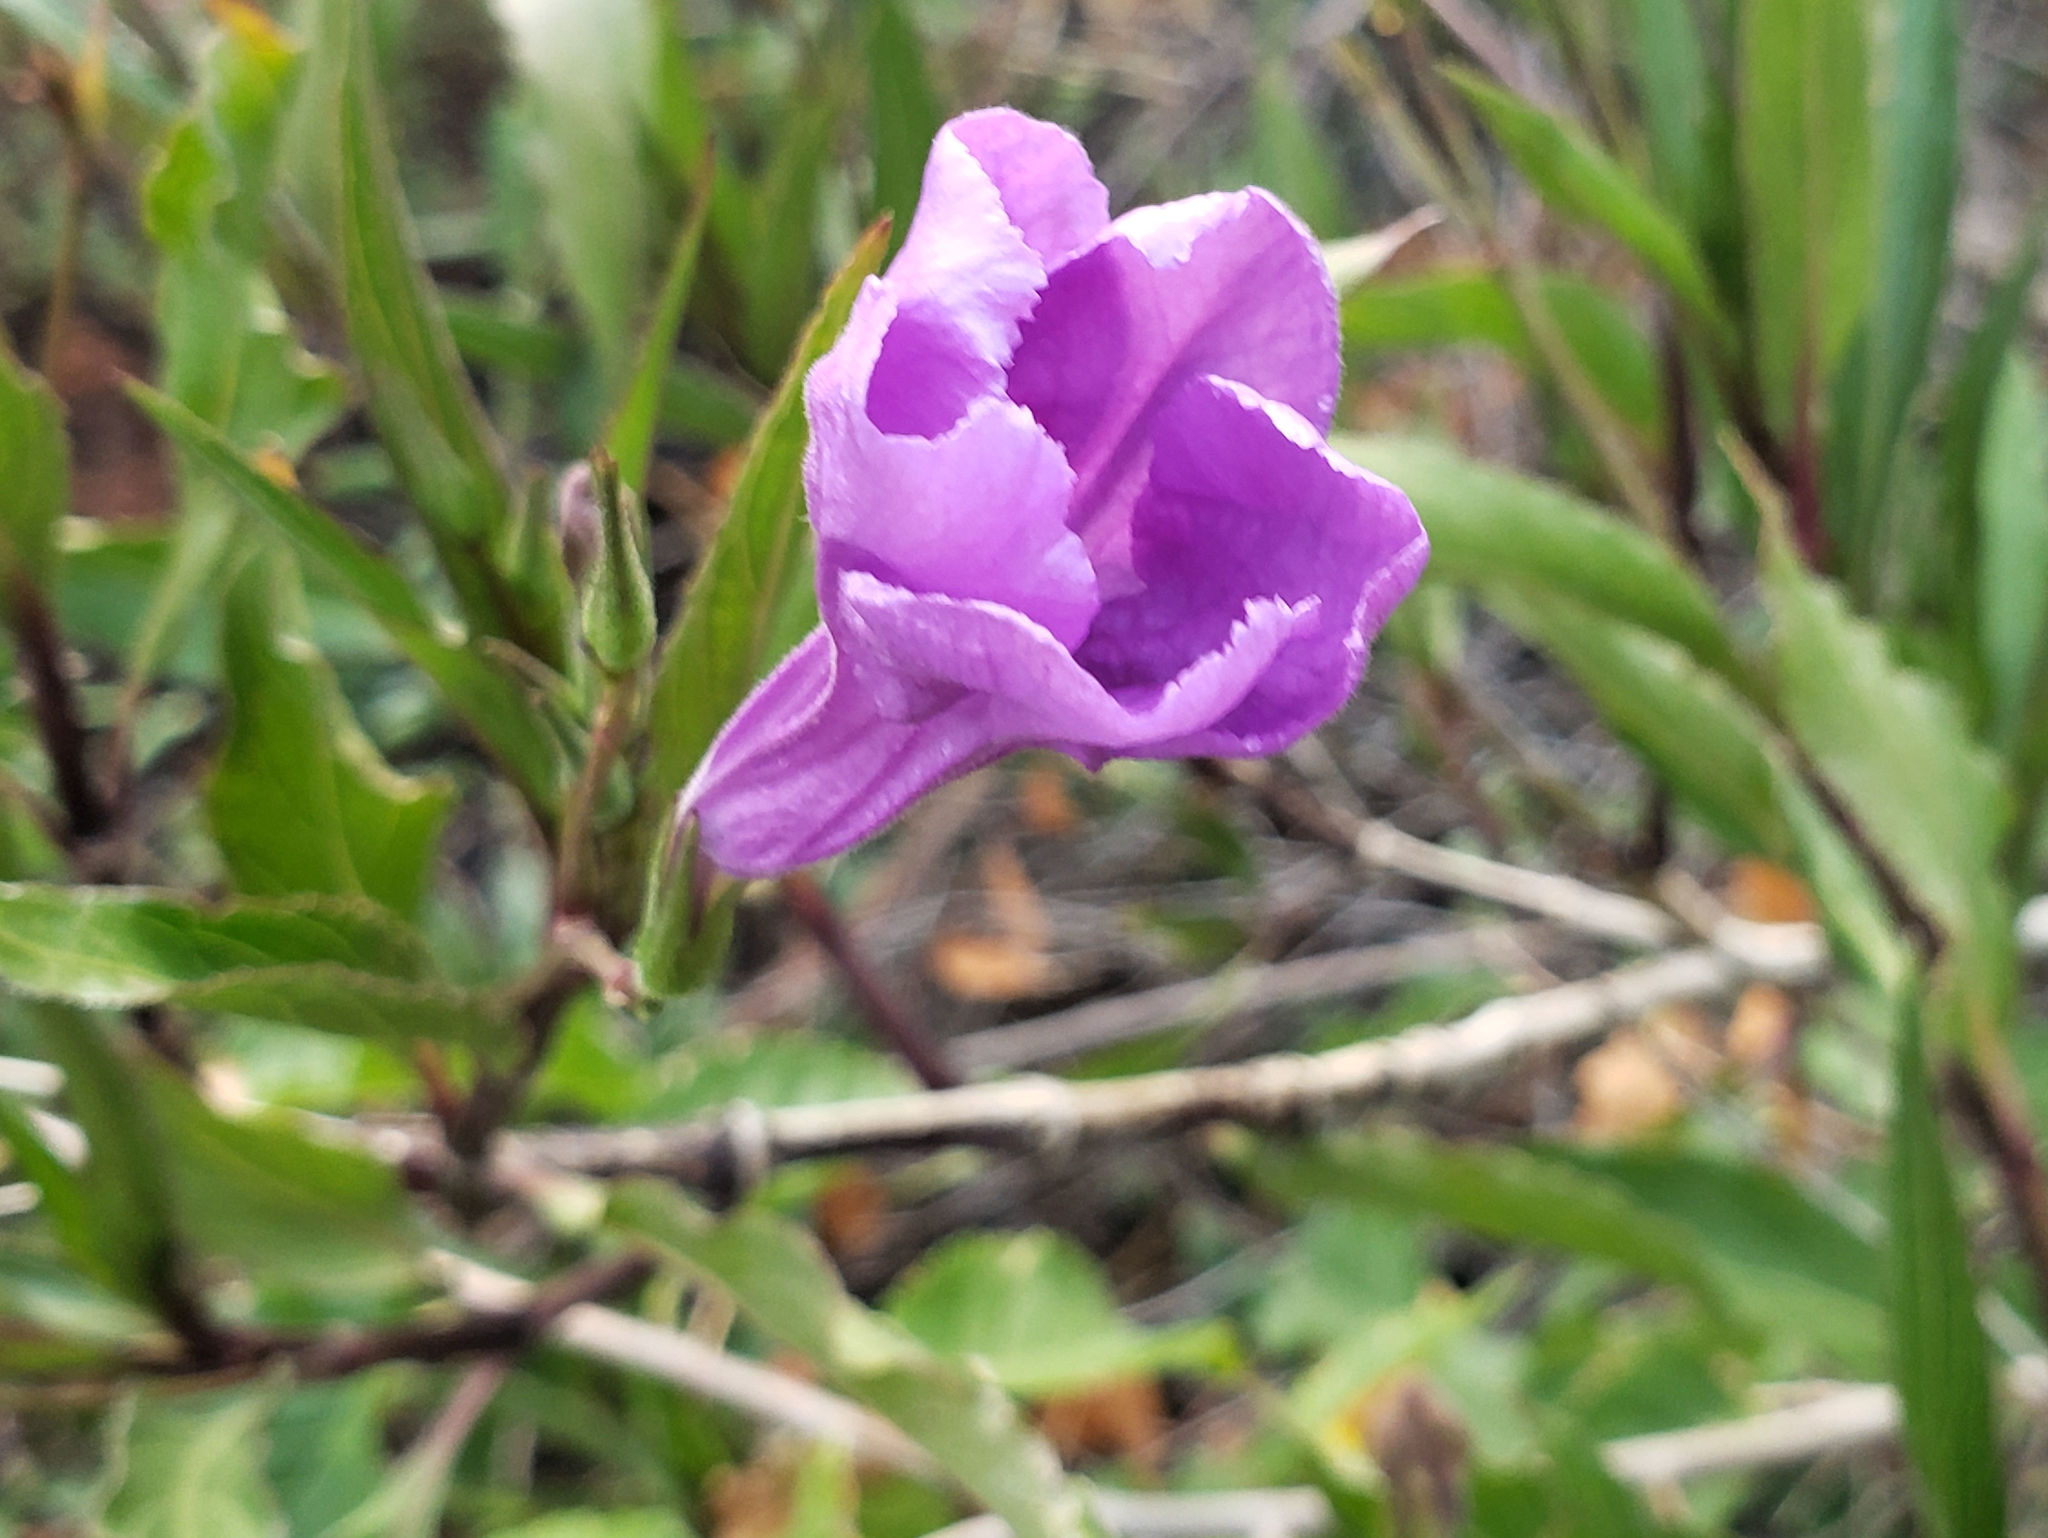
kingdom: Plantae
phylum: Tracheophyta
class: Magnoliopsida
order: Lamiales
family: Acanthaceae
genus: Ruellia
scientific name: Ruellia simplex
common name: Softseed wild petunia
